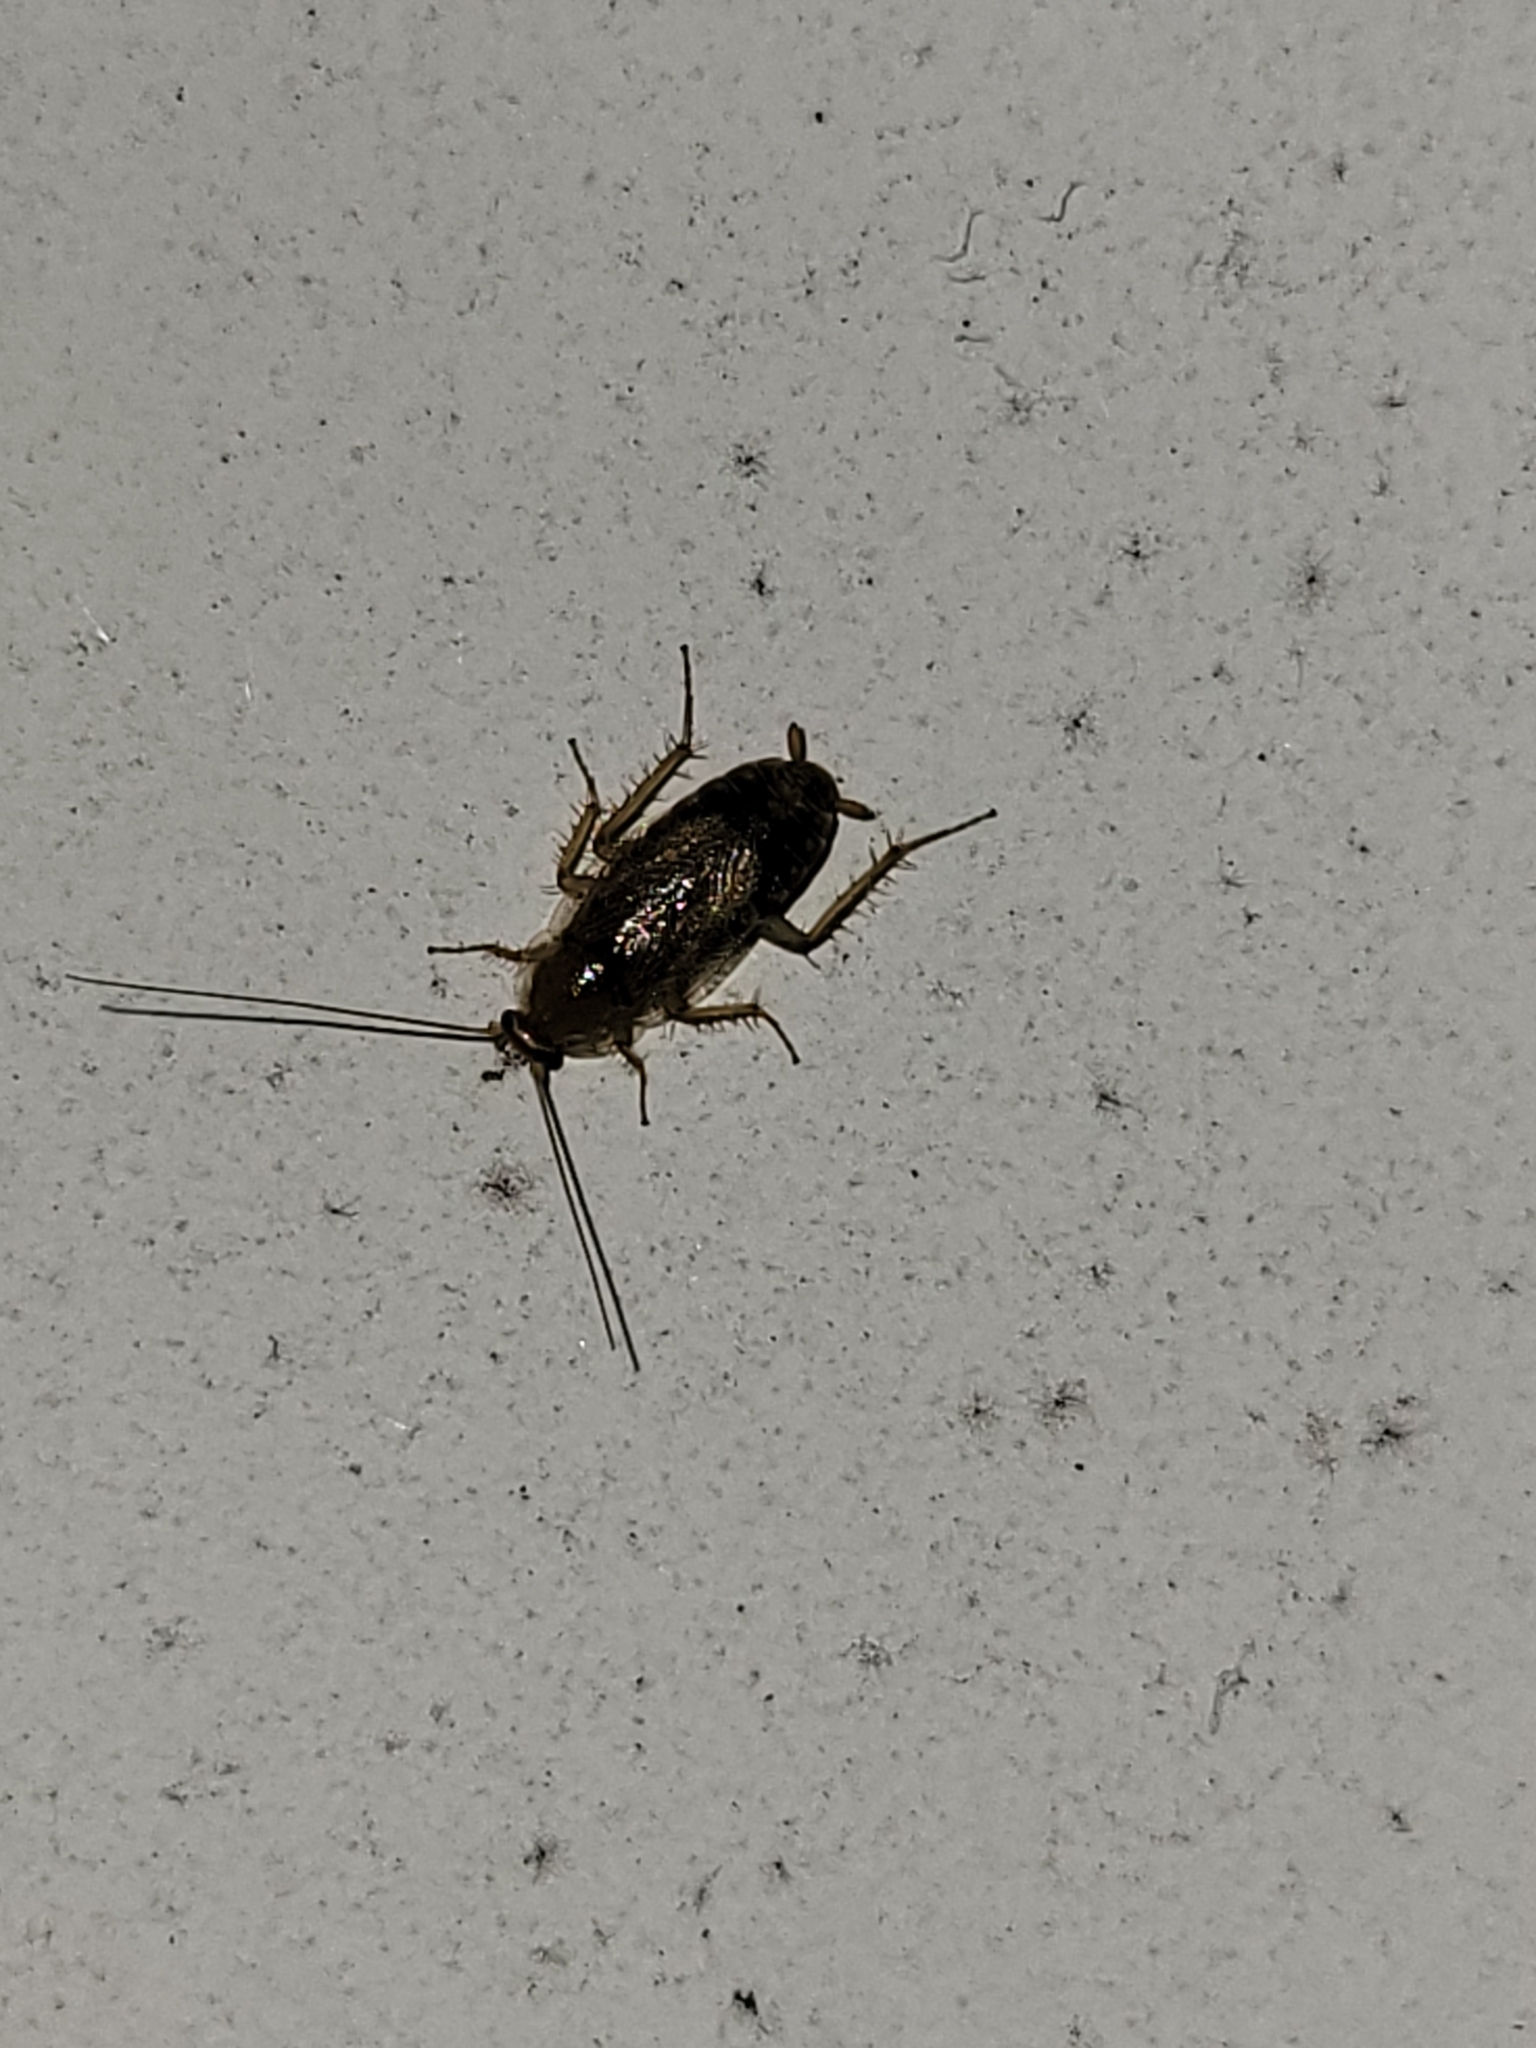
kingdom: Animalia
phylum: Arthropoda
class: Insecta
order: Blattodea
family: Ectobiidae
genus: Planuncus
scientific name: Planuncus tingitanus
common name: Variable cockroach
